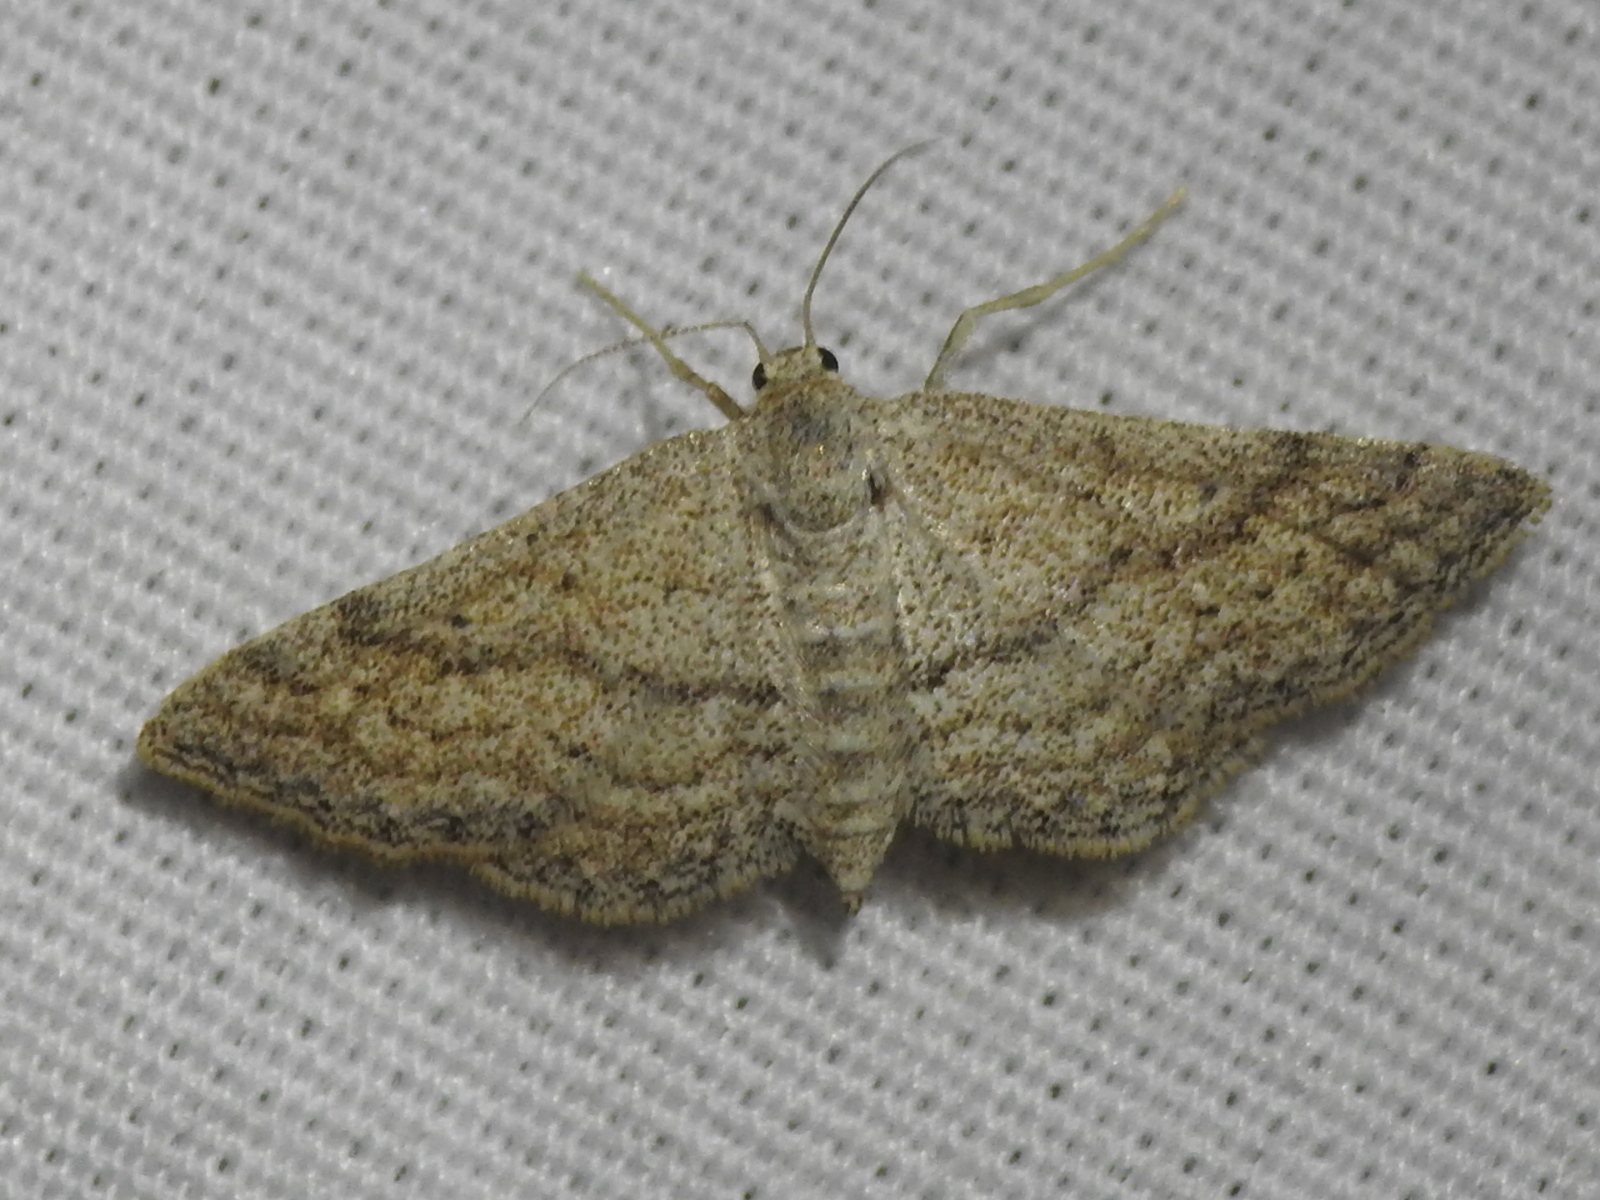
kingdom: Animalia
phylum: Arthropoda
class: Insecta
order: Lepidoptera
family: Geometridae
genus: Lobocleta
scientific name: Lobocleta ossularia
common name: Drab brown wave
